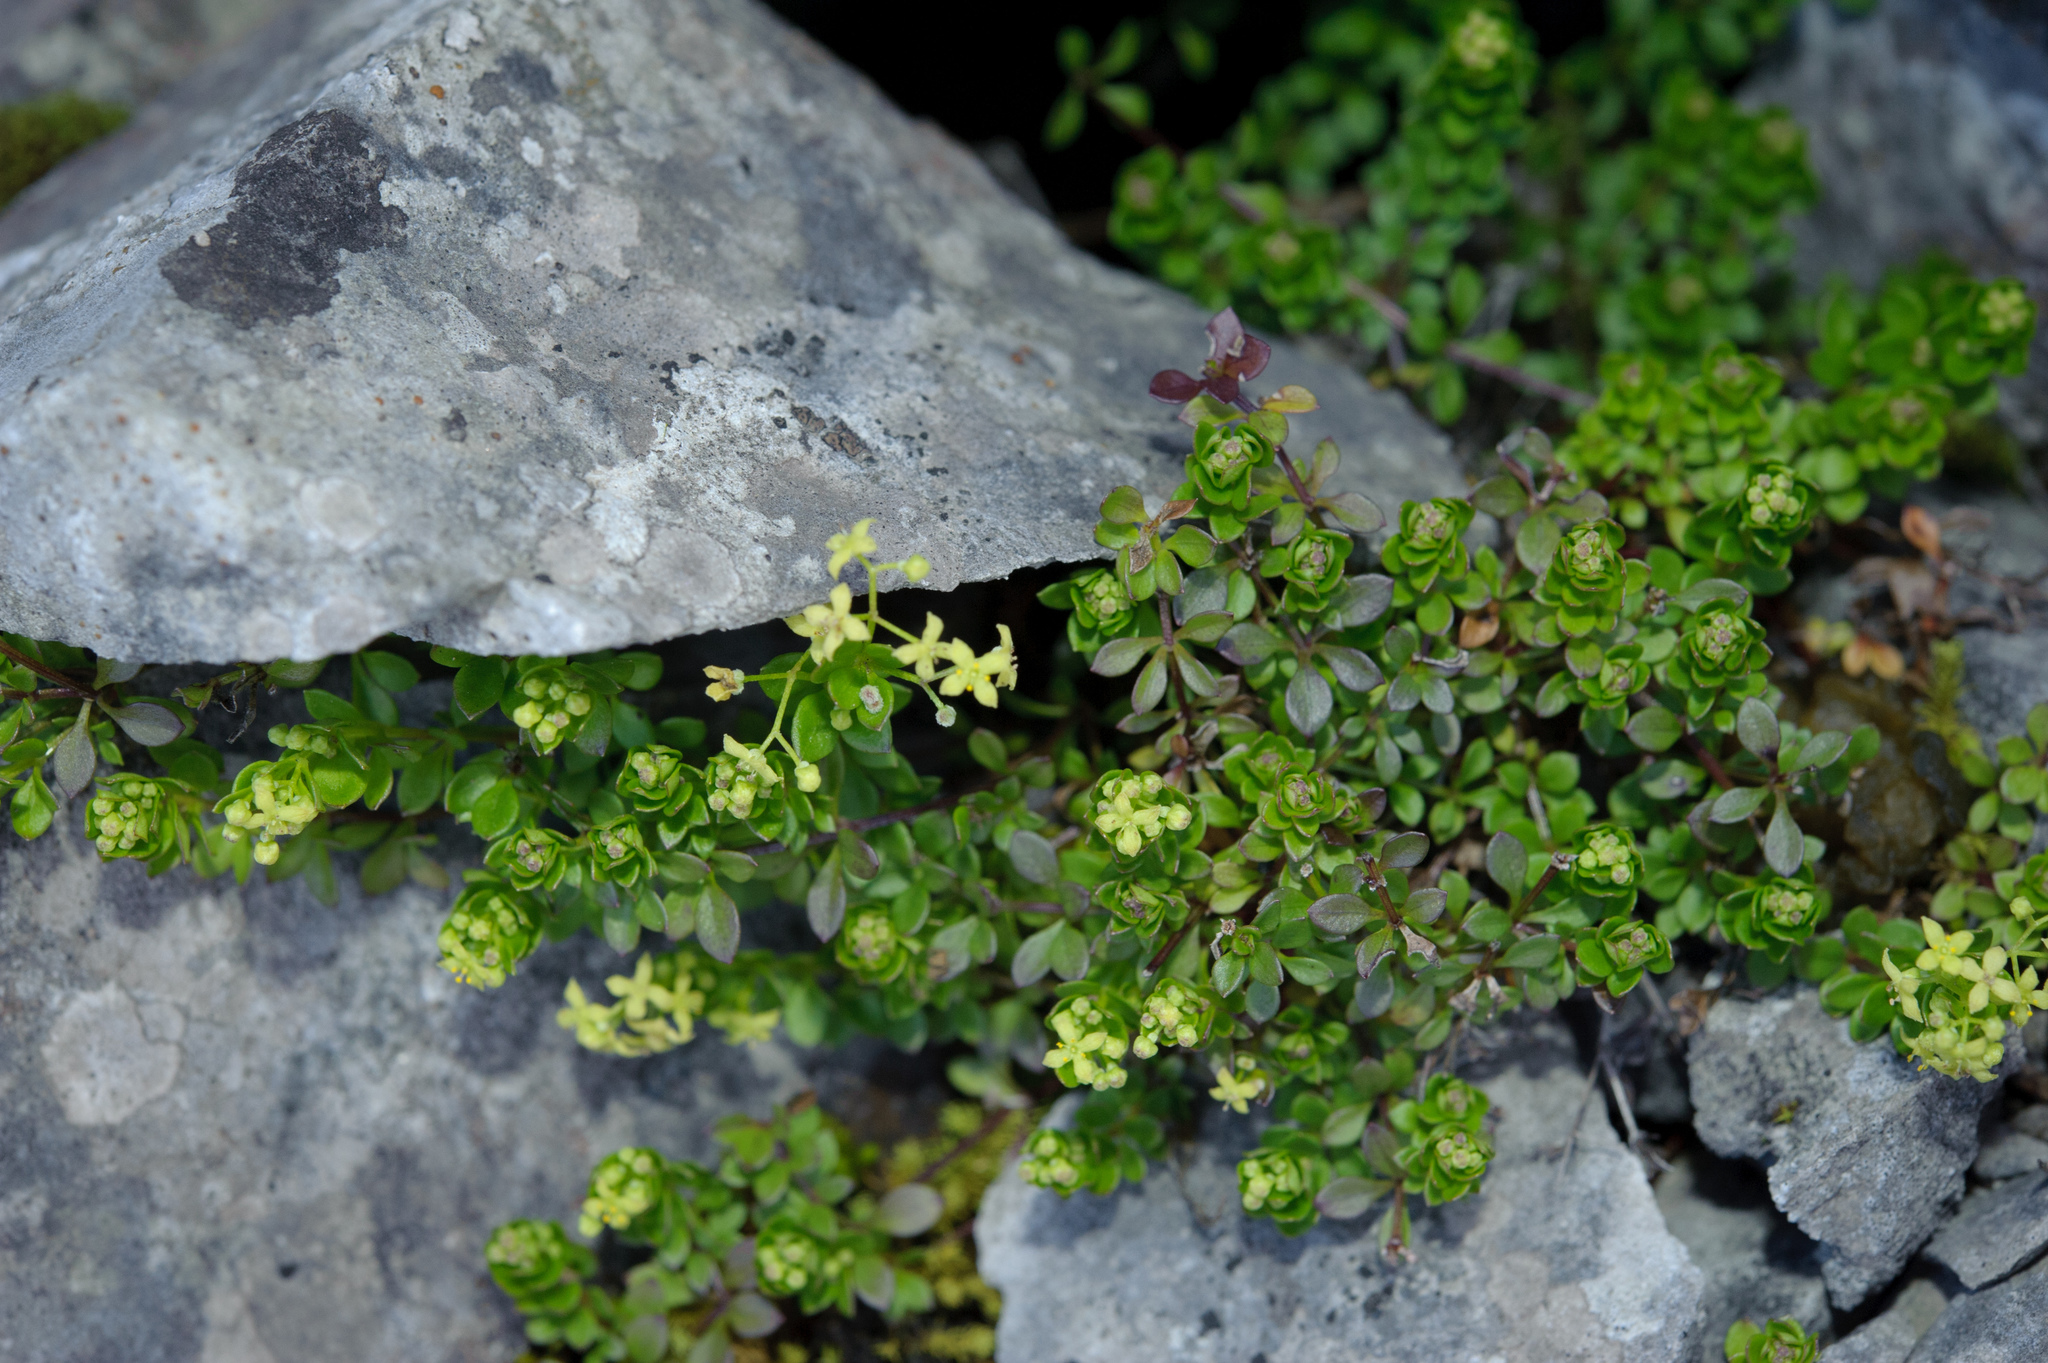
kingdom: Plantae
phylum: Tracheophyta
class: Magnoliopsida
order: Gentianales
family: Rubiaceae
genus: Galium
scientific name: Galium tarokoense
